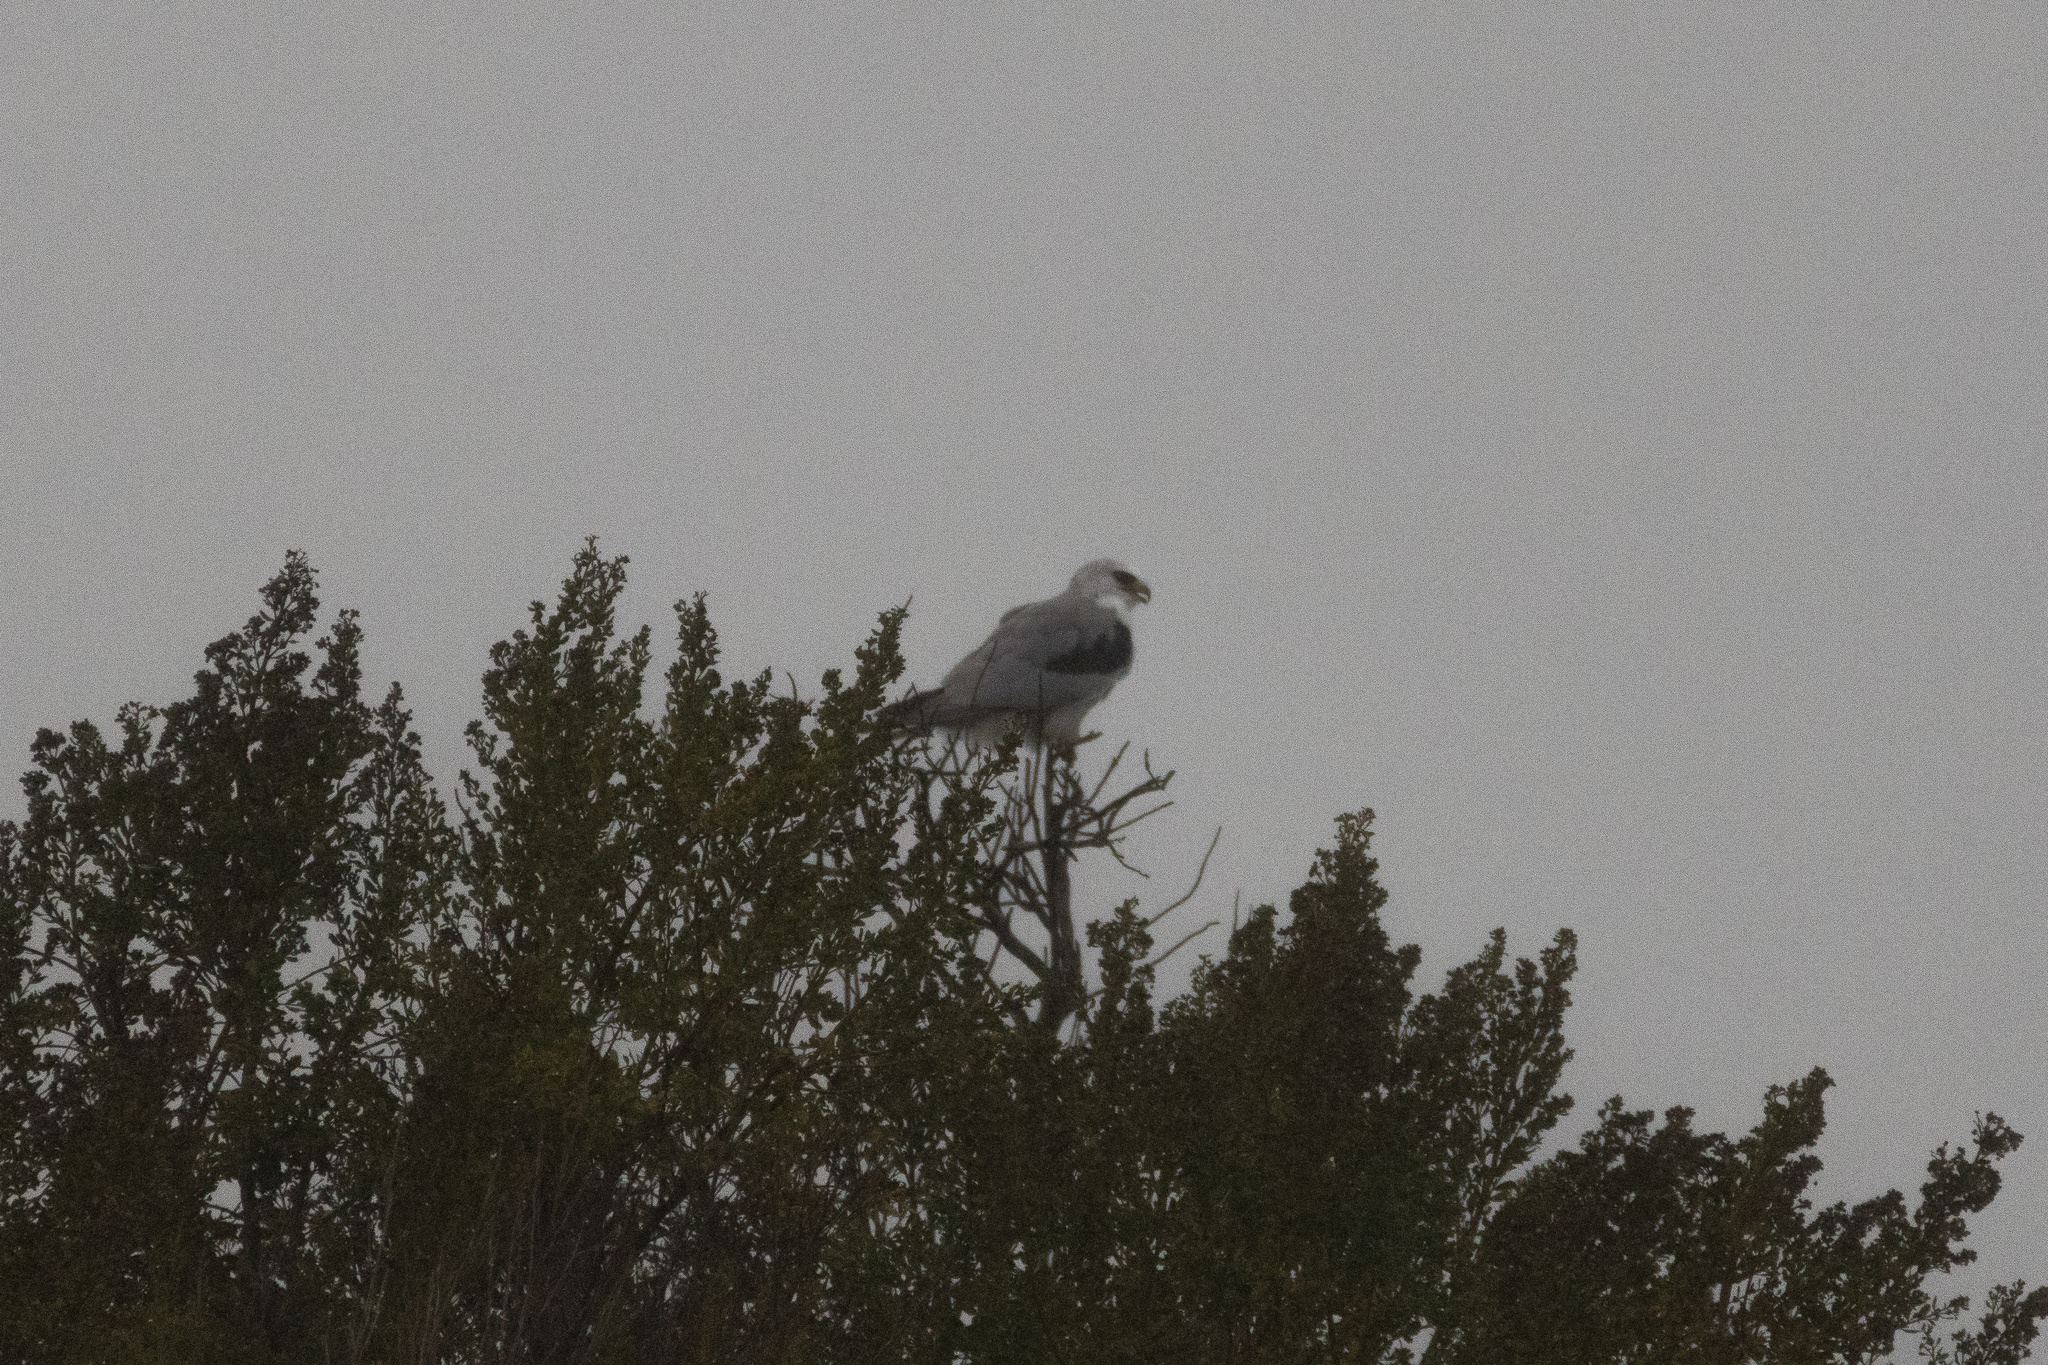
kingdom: Animalia
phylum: Chordata
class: Aves
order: Accipitriformes
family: Accipitridae
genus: Elanus
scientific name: Elanus leucurus
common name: White-tailed kite
